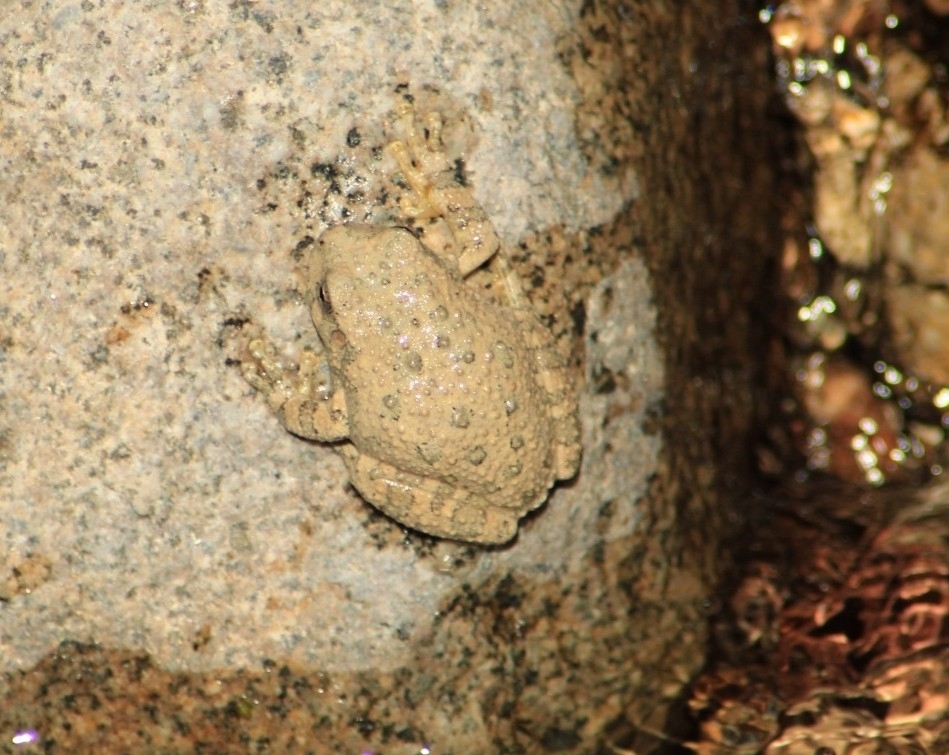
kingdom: Animalia
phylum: Chordata
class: Amphibia
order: Anura
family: Hylidae
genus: Dryophytes
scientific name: Dryophytes arenicolor
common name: Canyon treefrog
